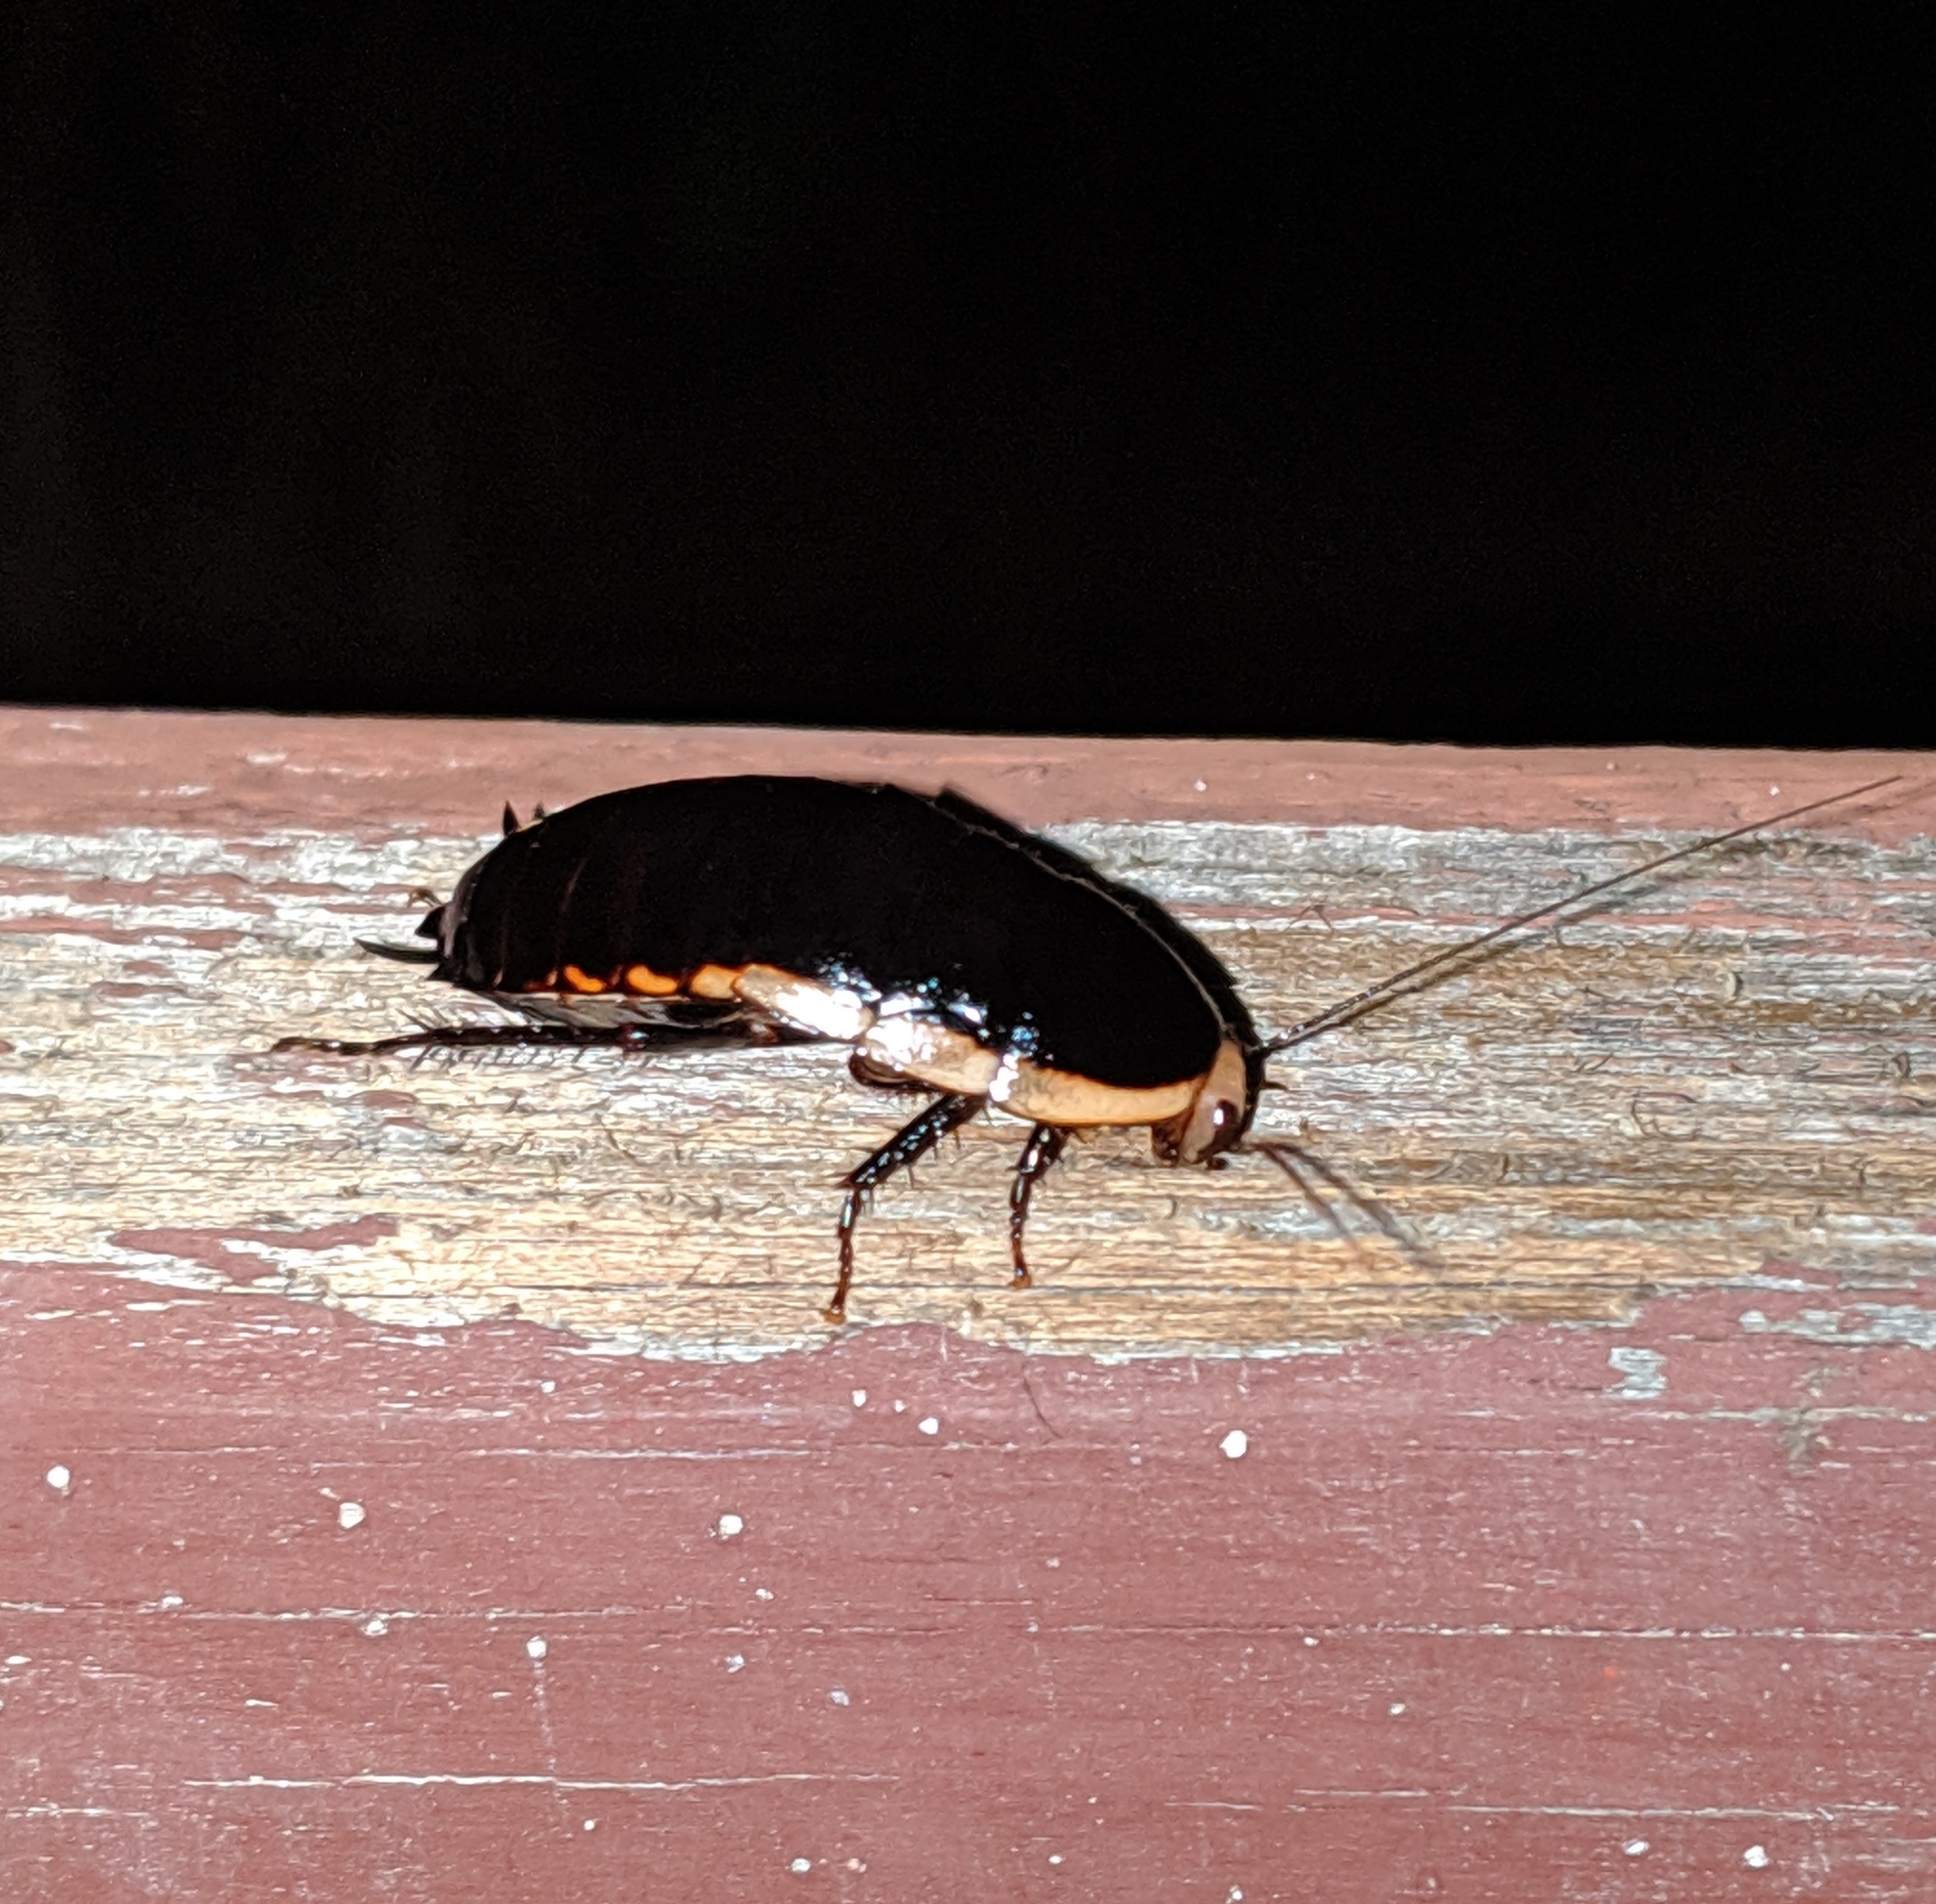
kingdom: Animalia
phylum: Arthropoda
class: Insecta
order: Blattodea
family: Blattidae
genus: Melanozosteria
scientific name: Melanozosteria soror
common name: White-edged wingless cockroach
